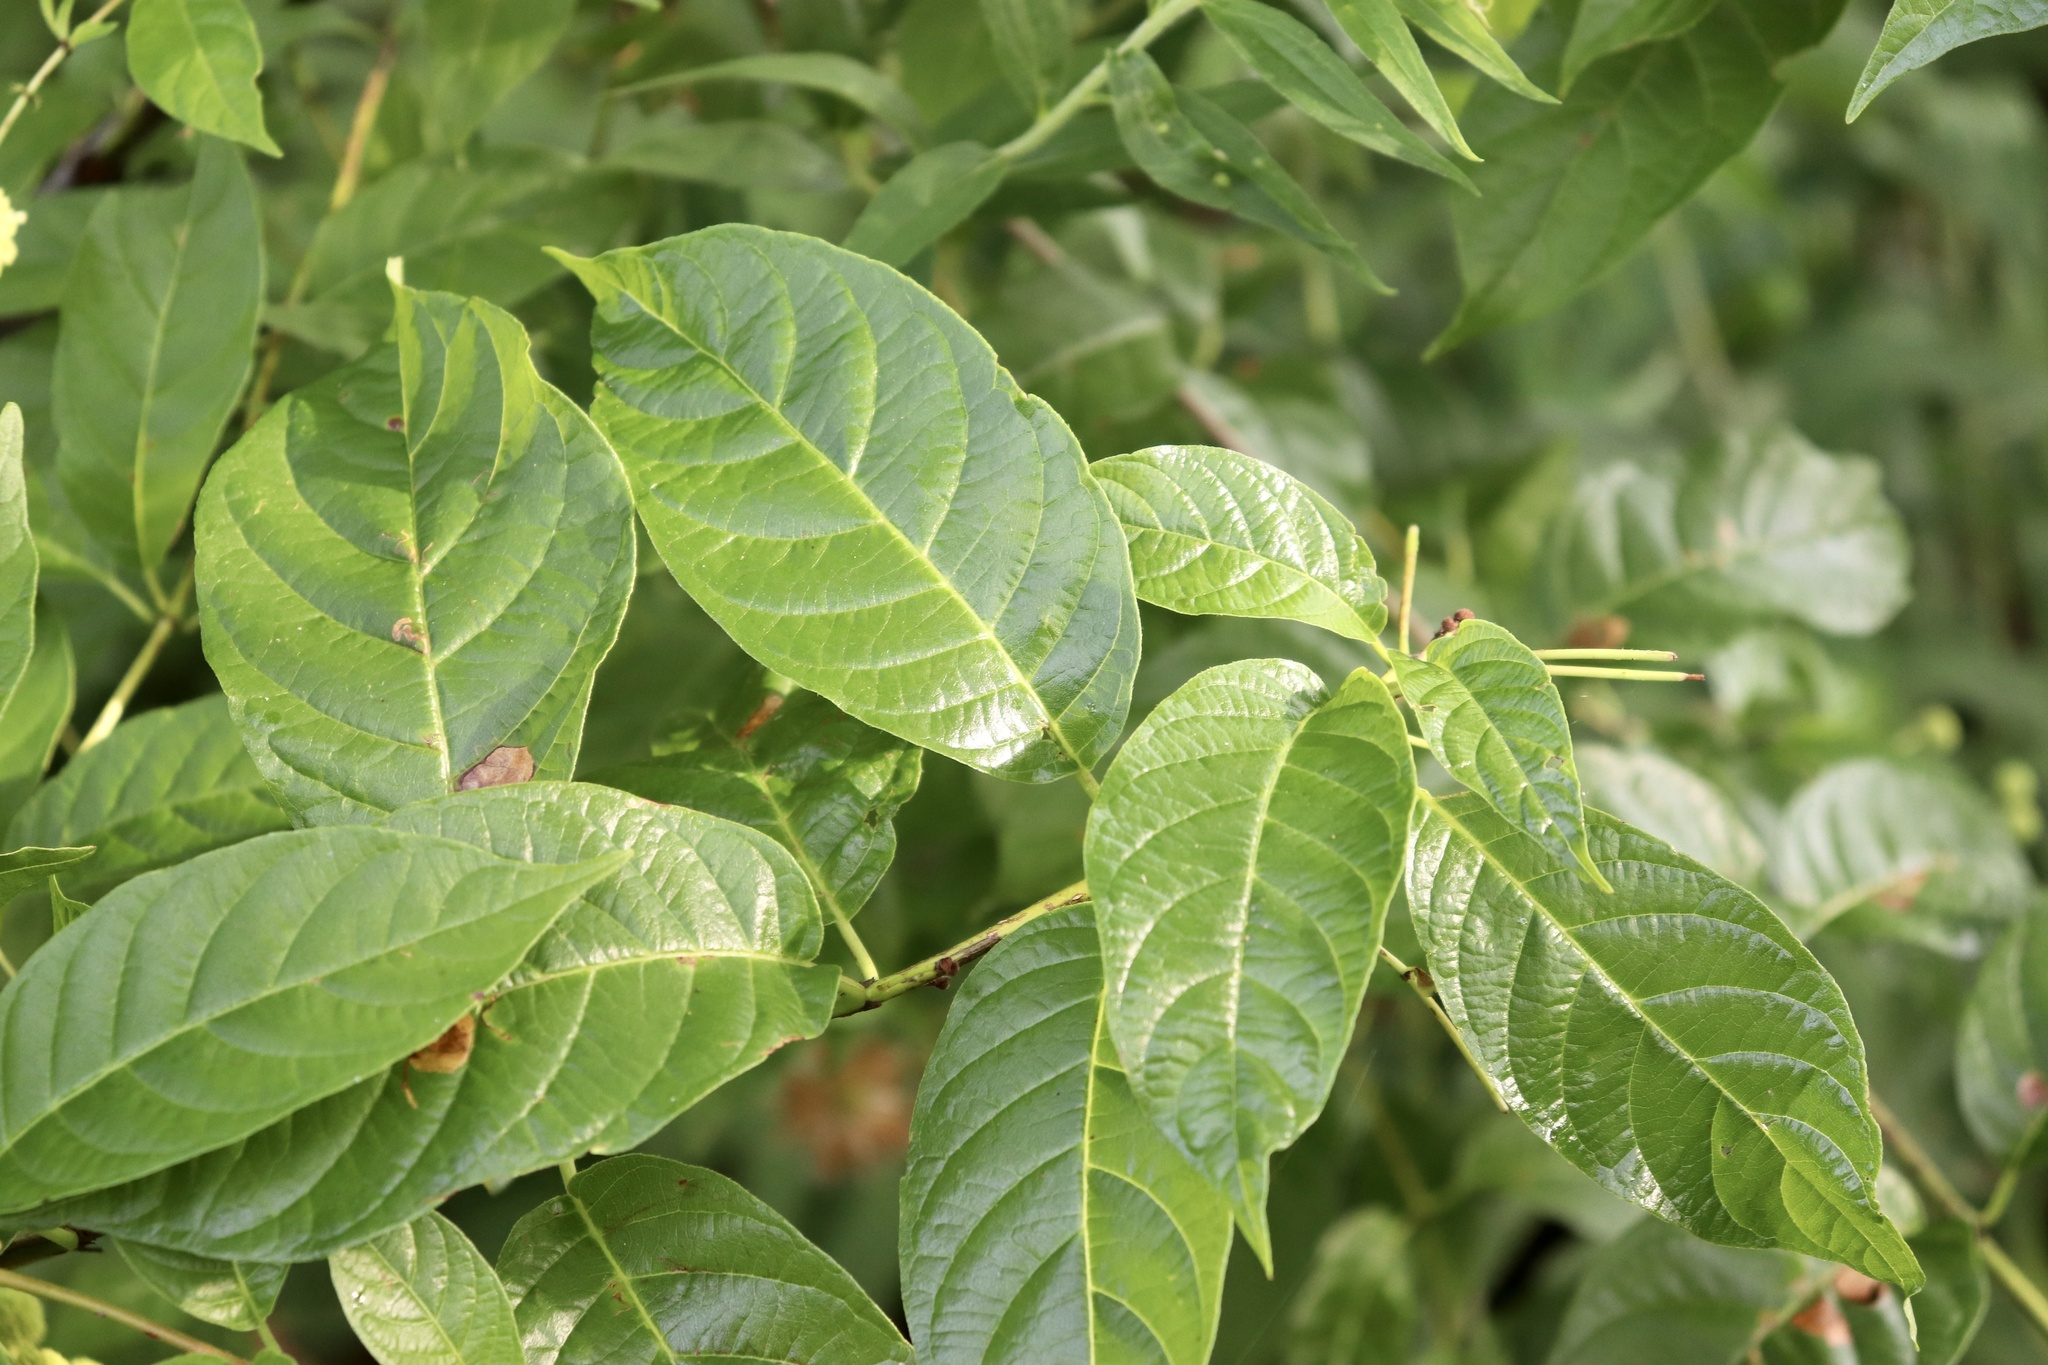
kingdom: Plantae
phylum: Tracheophyta
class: Magnoliopsida
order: Gentianales
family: Rubiaceae
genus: Cephalanthus
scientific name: Cephalanthus occidentalis
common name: Button-willow
